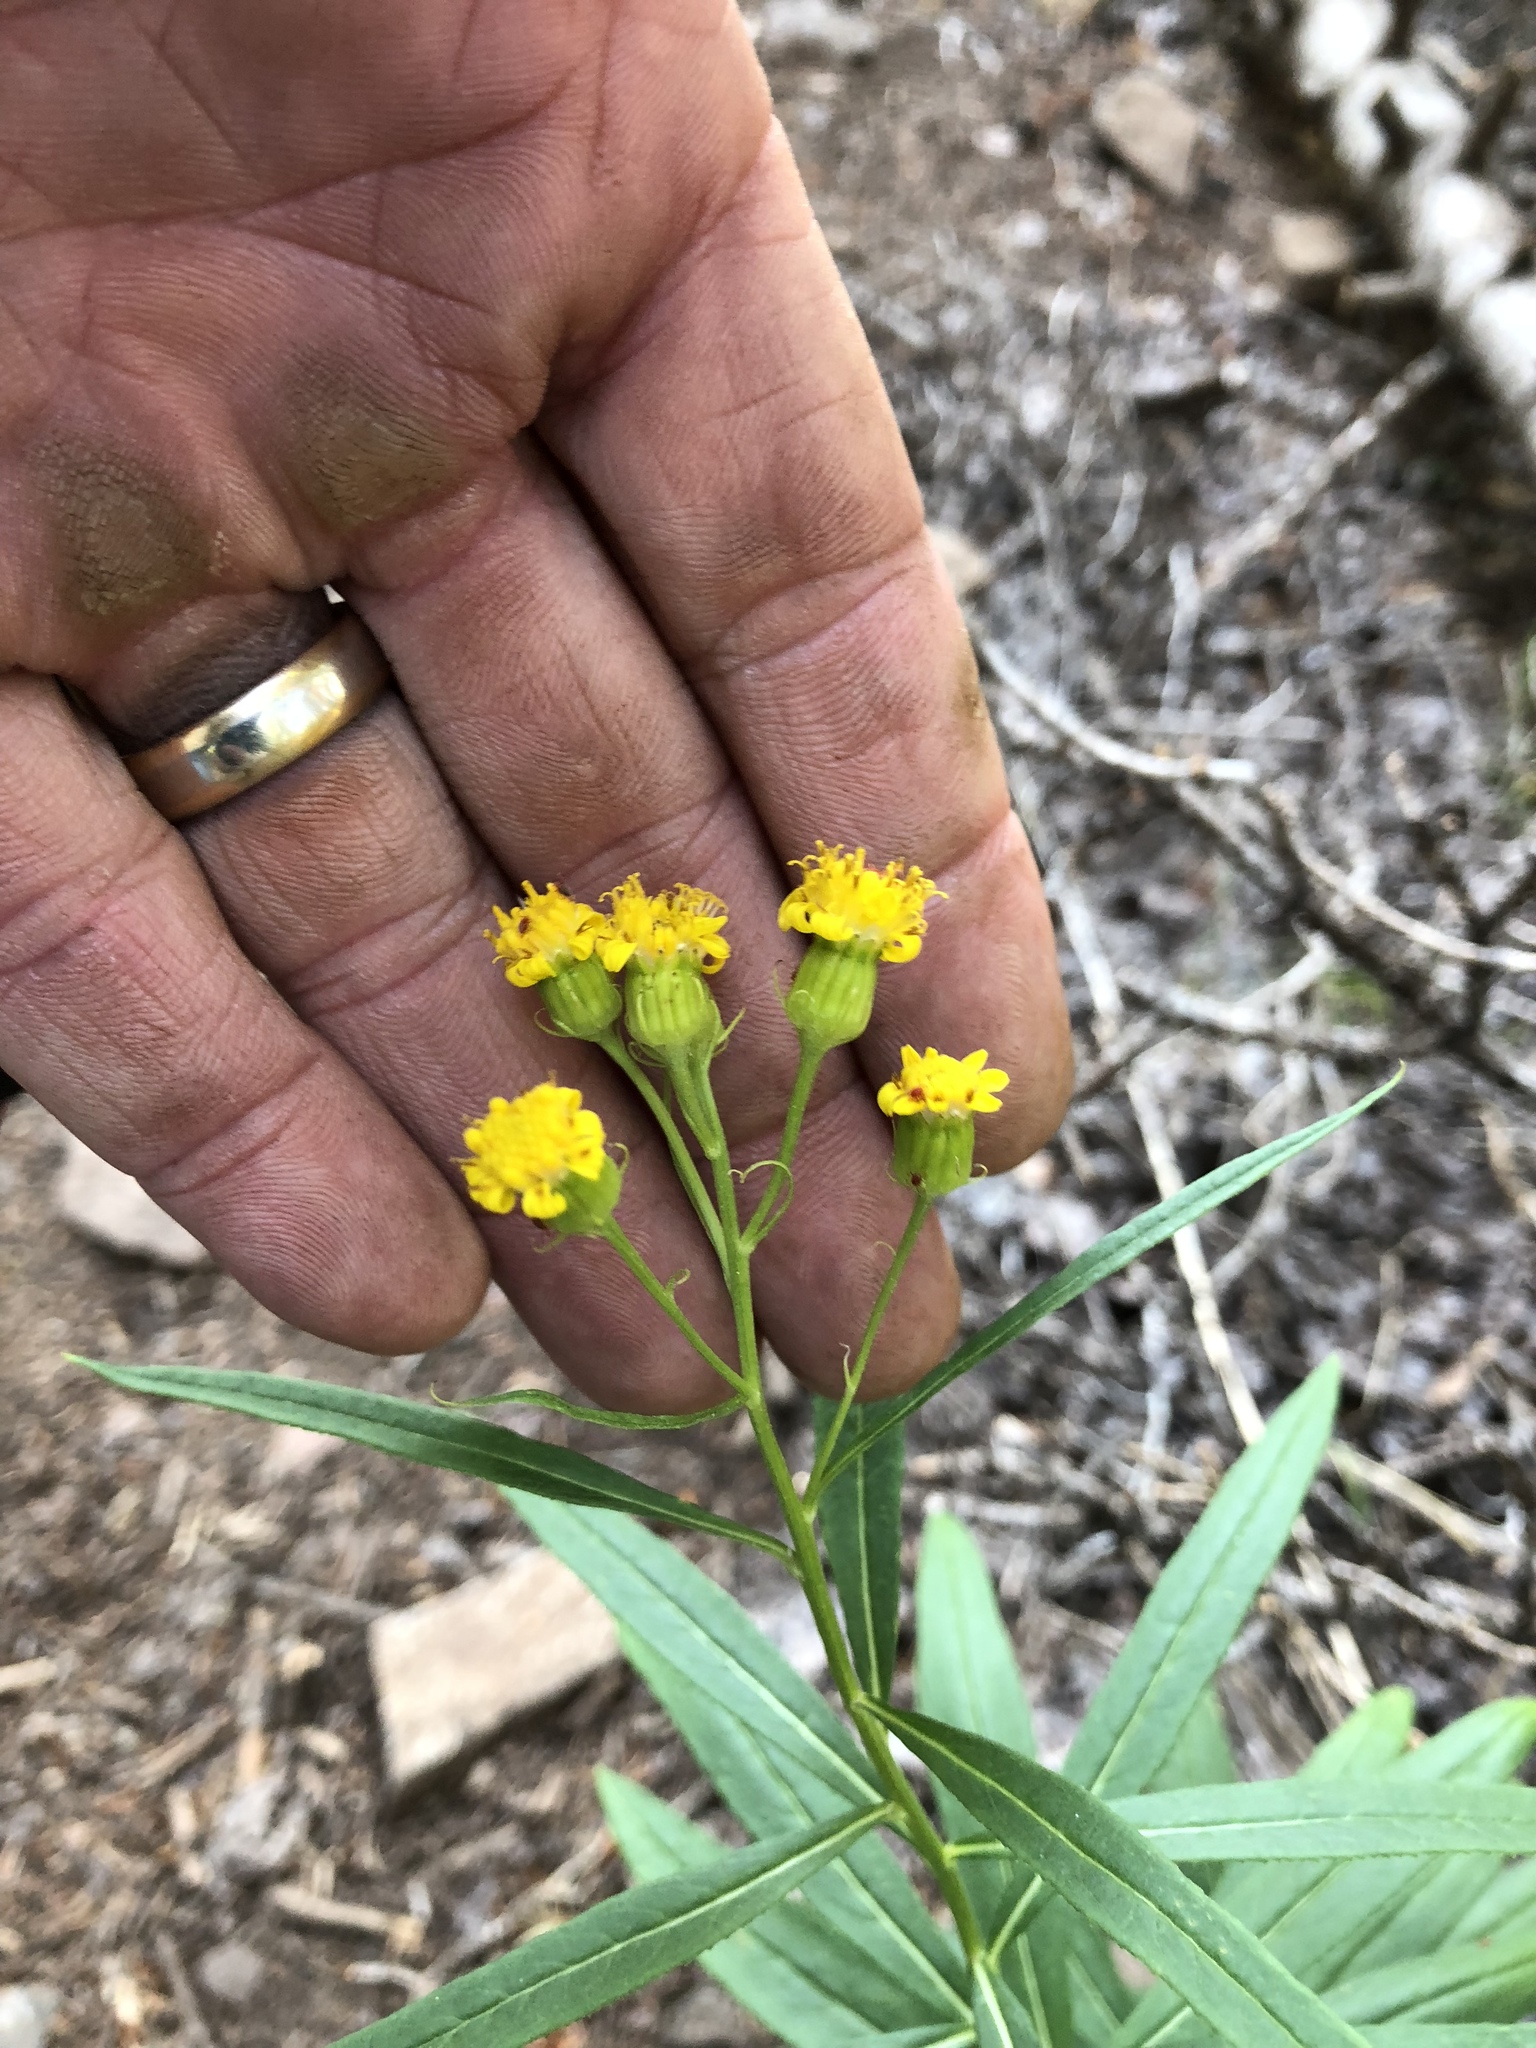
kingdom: Plantae
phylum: Tracheophyta
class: Magnoliopsida
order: Asterales
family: Asteraceae
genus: Senecio
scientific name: Senecio serra
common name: Tall ragwort
